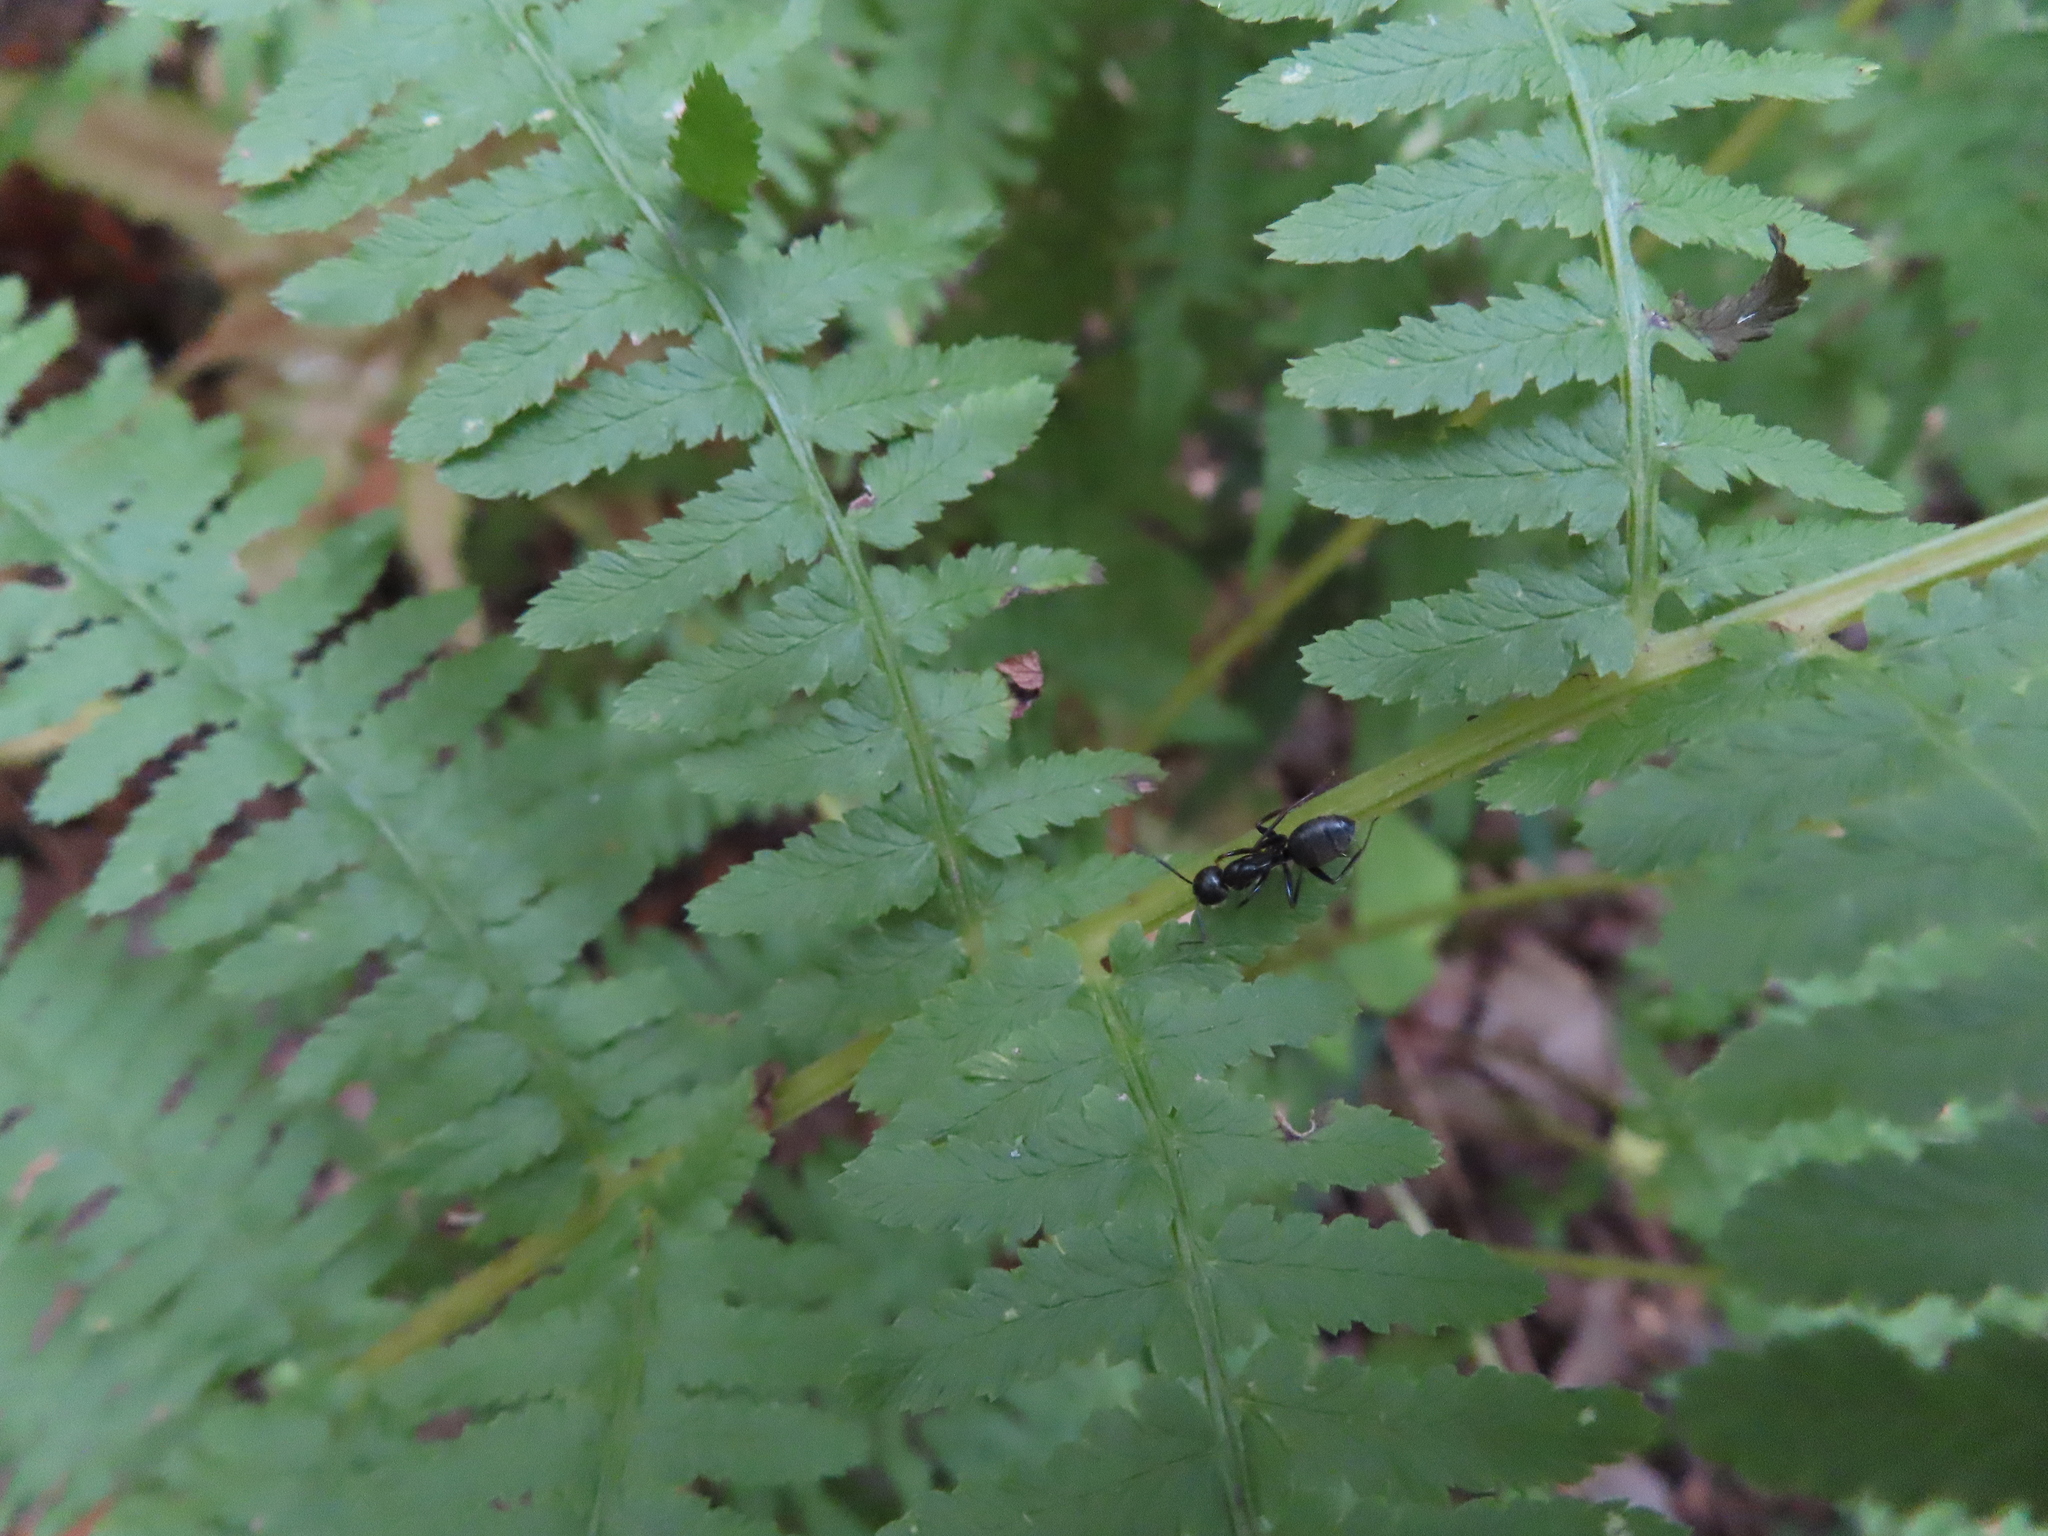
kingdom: Animalia
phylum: Arthropoda
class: Insecta
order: Hymenoptera
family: Formicidae
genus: Camponotus
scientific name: Camponotus pennsylvanicus
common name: Black carpenter ant
